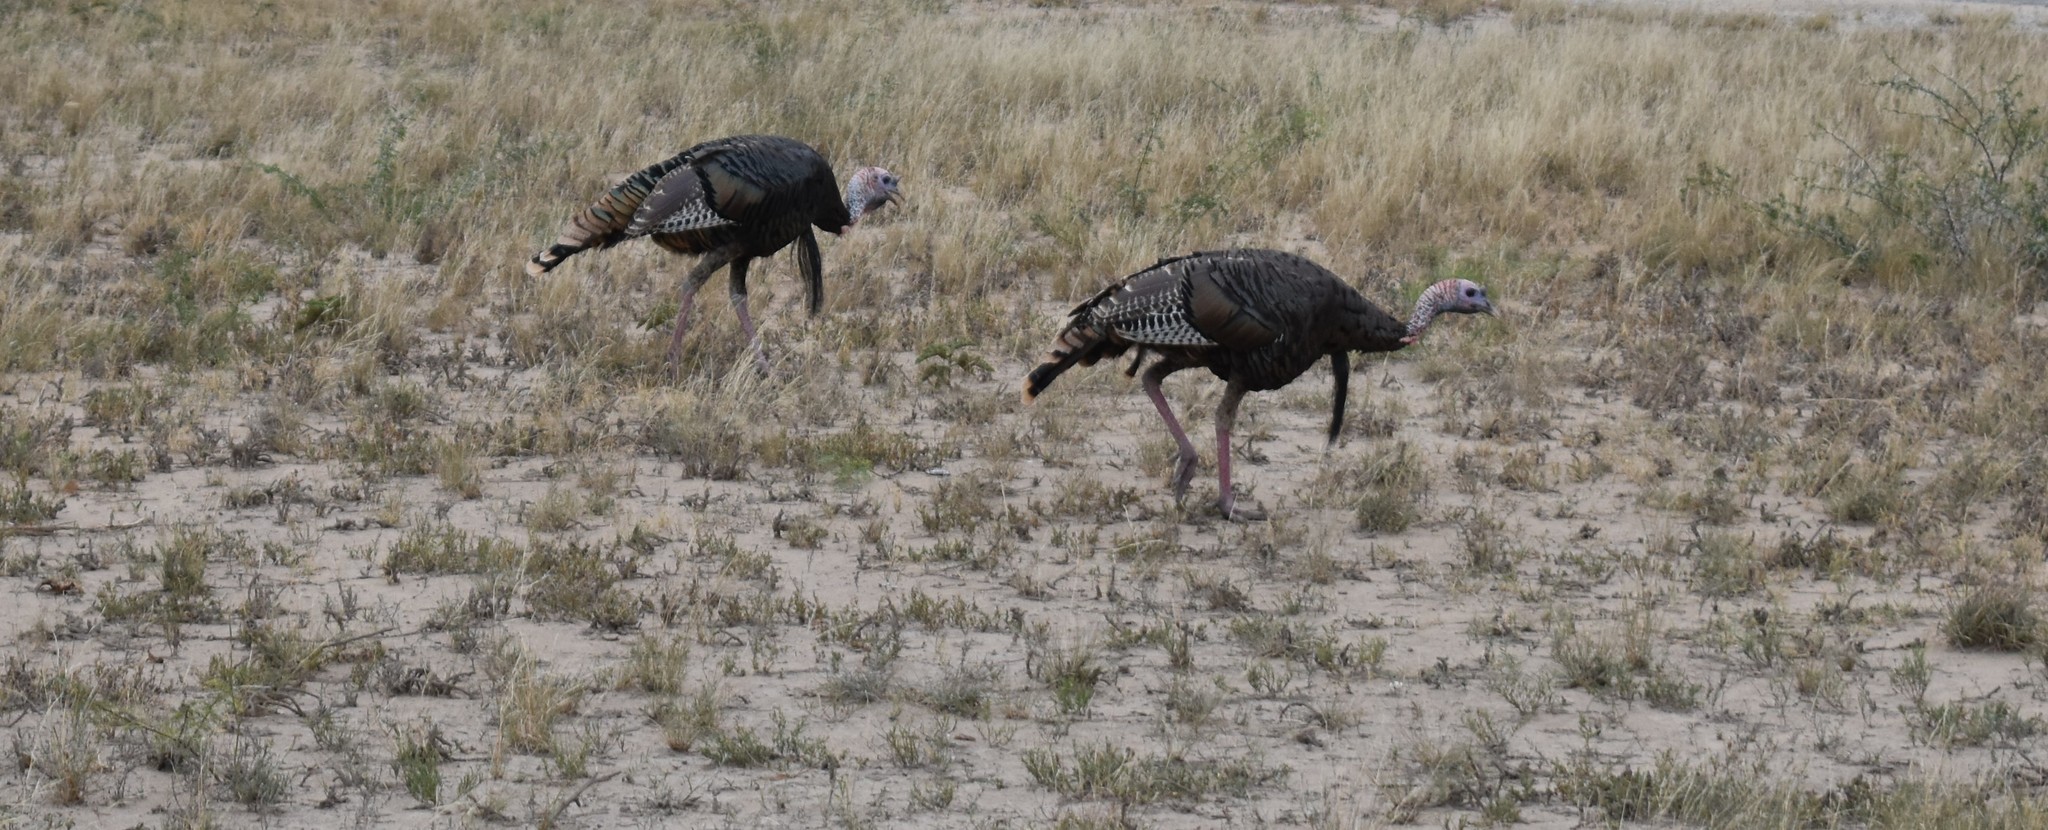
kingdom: Animalia
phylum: Chordata
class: Aves
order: Galliformes
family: Phasianidae
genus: Meleagris
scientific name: Meleagris gallopavo
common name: Wild turkey
